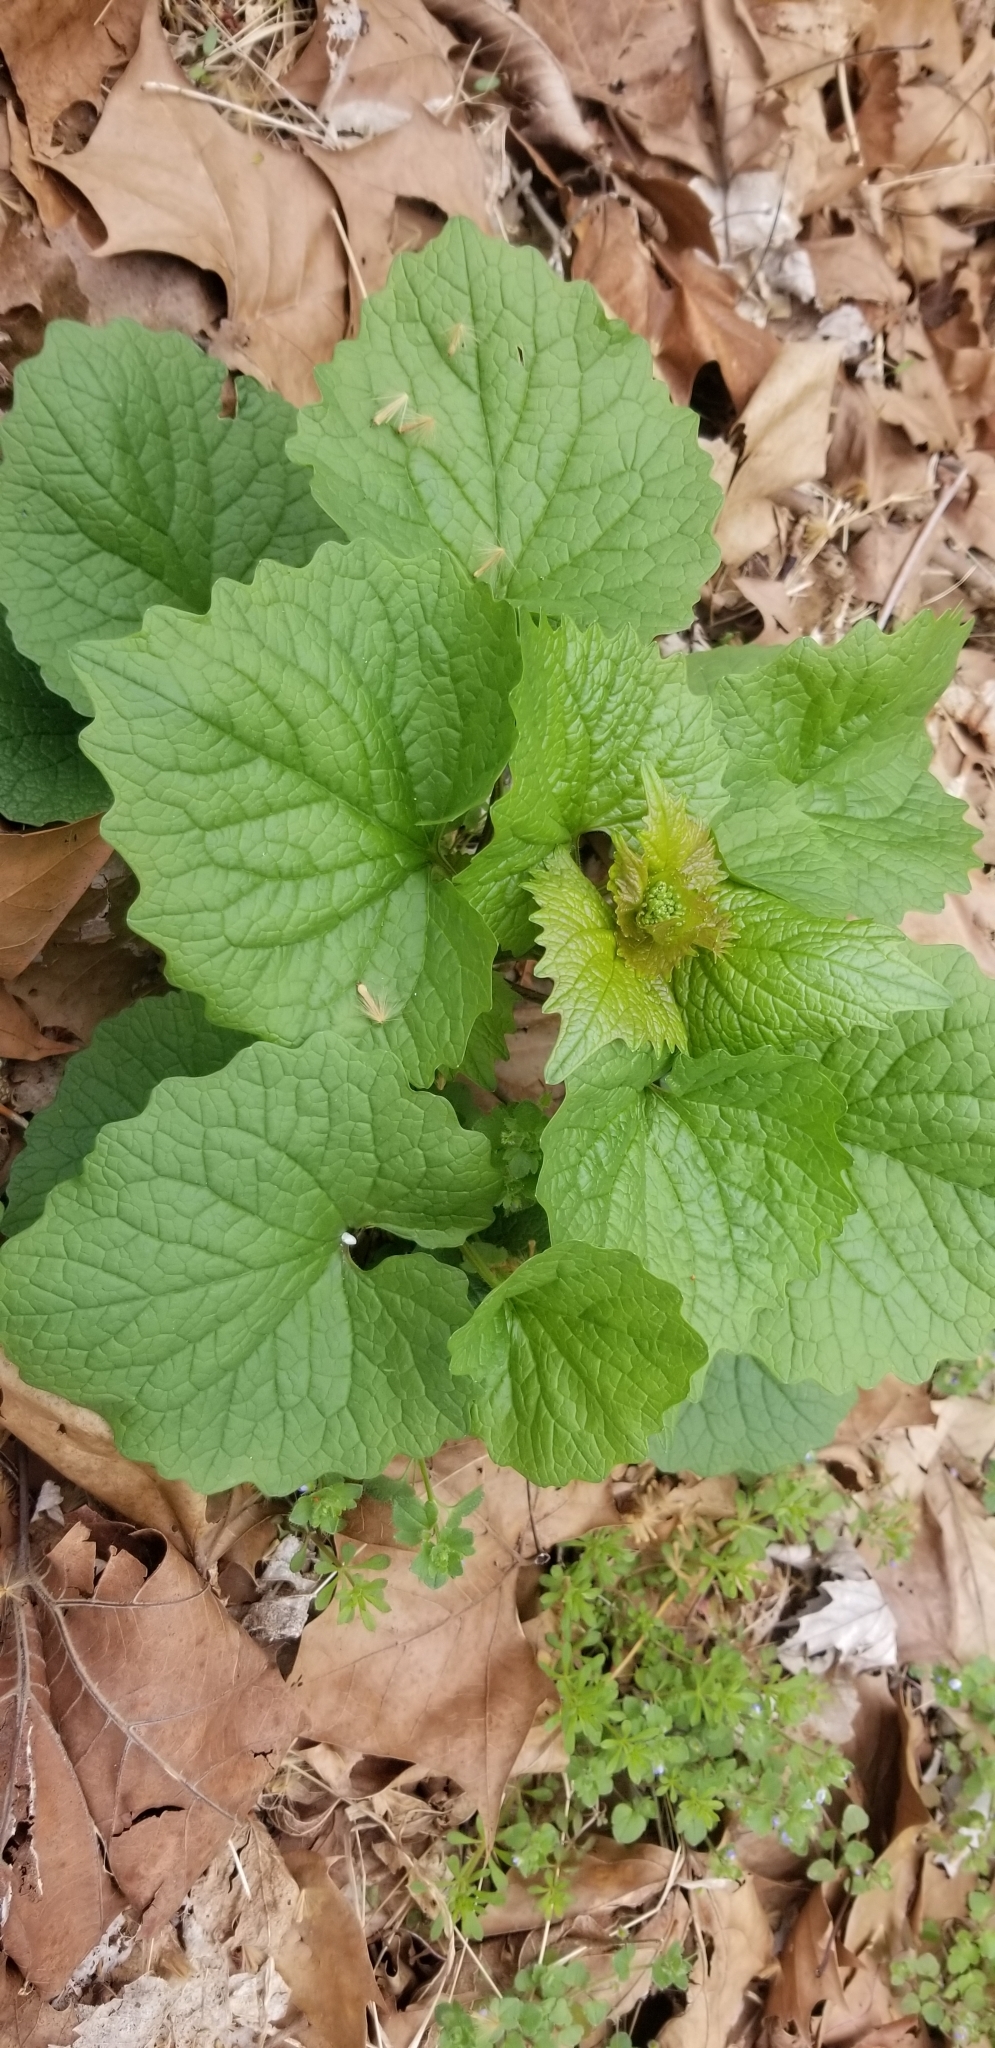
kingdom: Plantae
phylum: Tracheophyta
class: Magnoliopsida
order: Brassicales
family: Brassicaceae
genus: Alliaria
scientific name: Alliaria petiolata
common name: Garlic mustard
